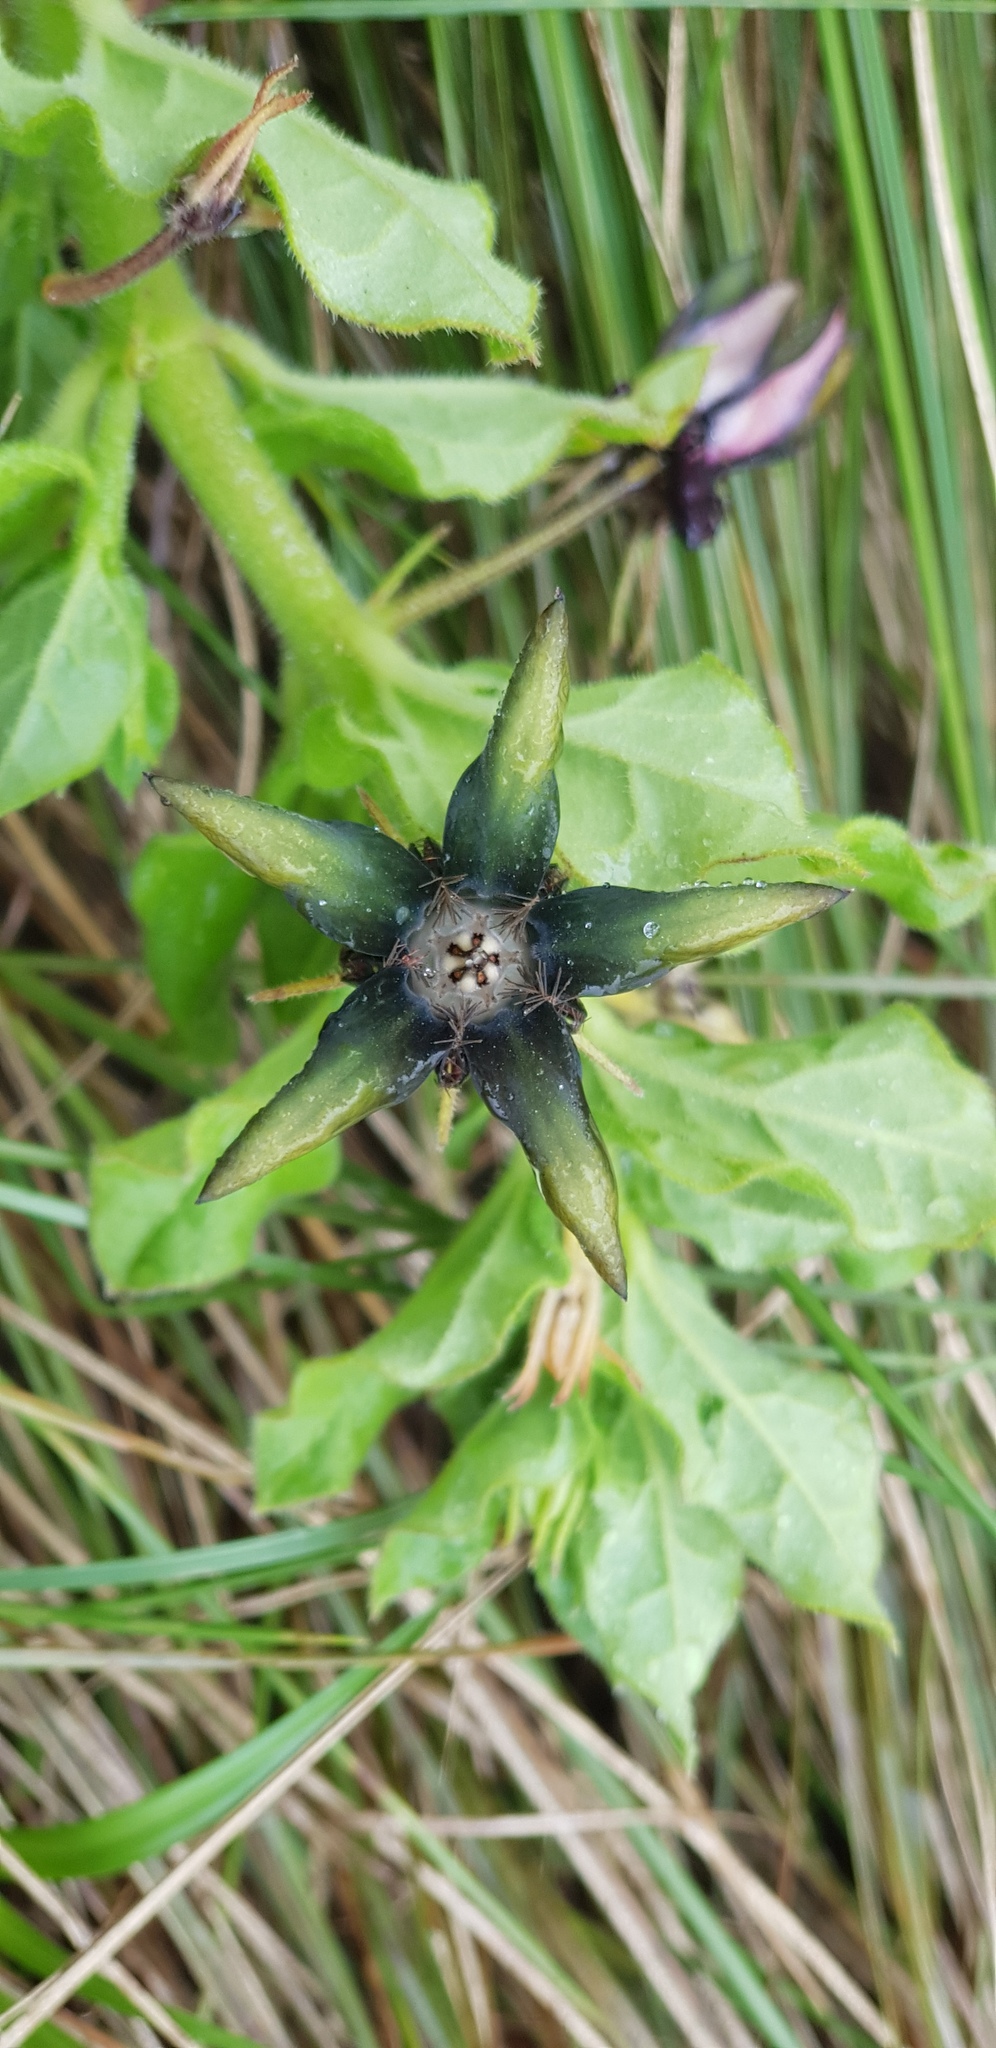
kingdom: Plantae
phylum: Tracheophyta
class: Magnoliopsida
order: Gentianales
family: Apocynaceae
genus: Ceropegia
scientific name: Ceropegia gerrardii
